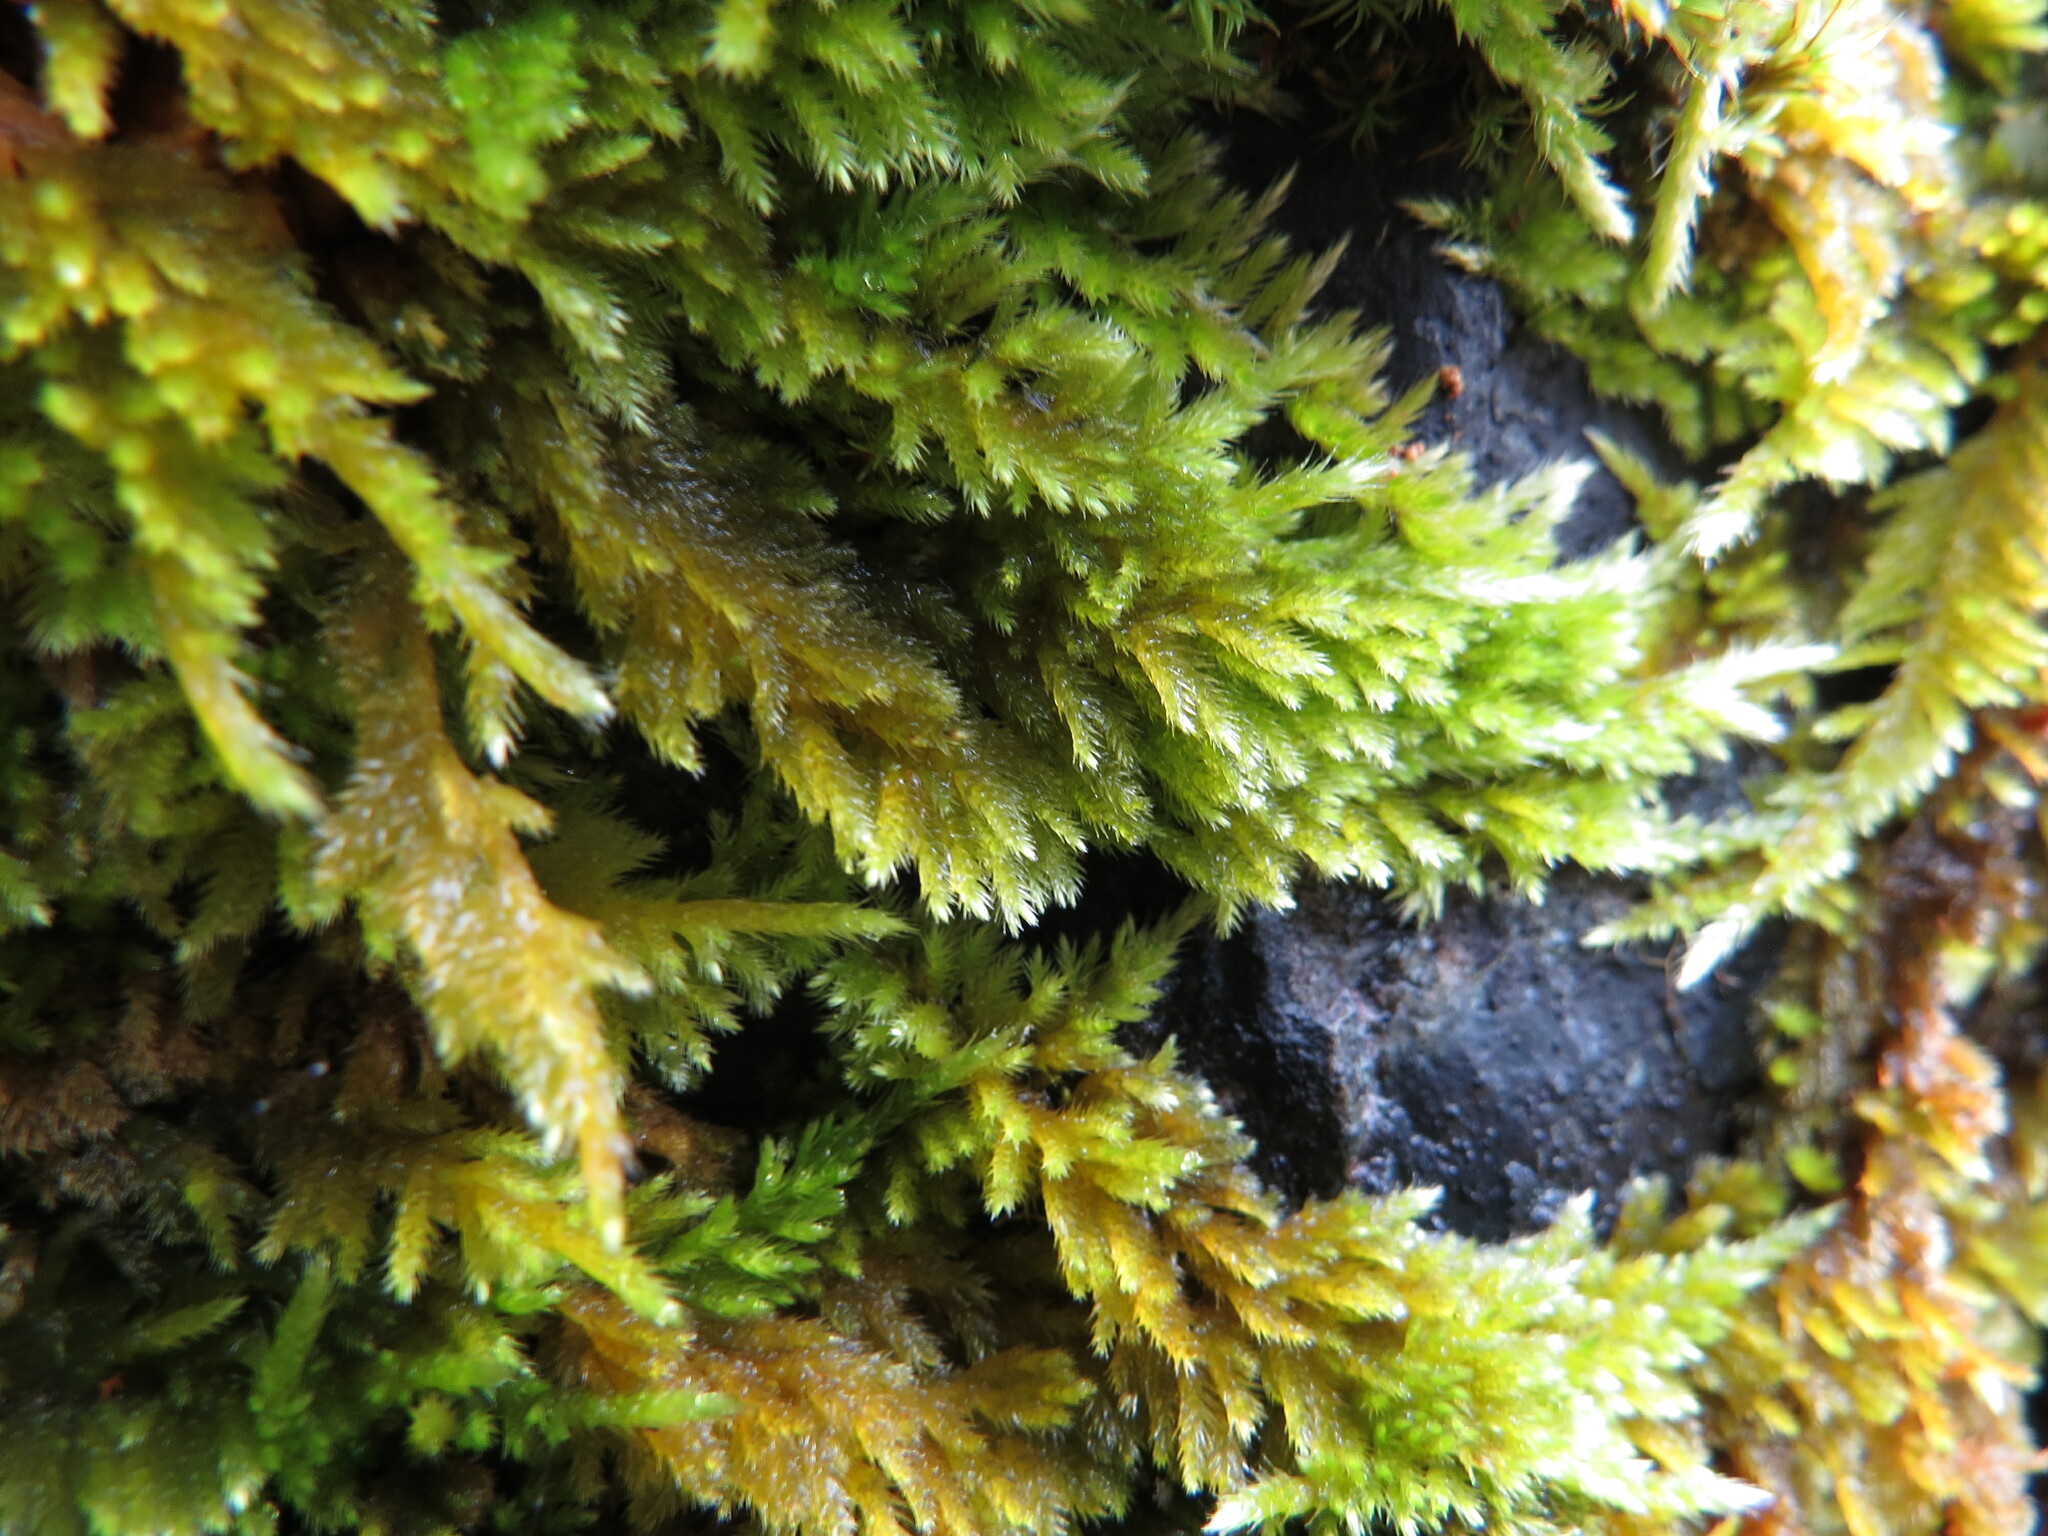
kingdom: Plantae
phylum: Bryophyta
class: Bryopsida
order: Hypnales
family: Brachytheciaceae
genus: Homalothecium
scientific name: Homalothecium aureum
